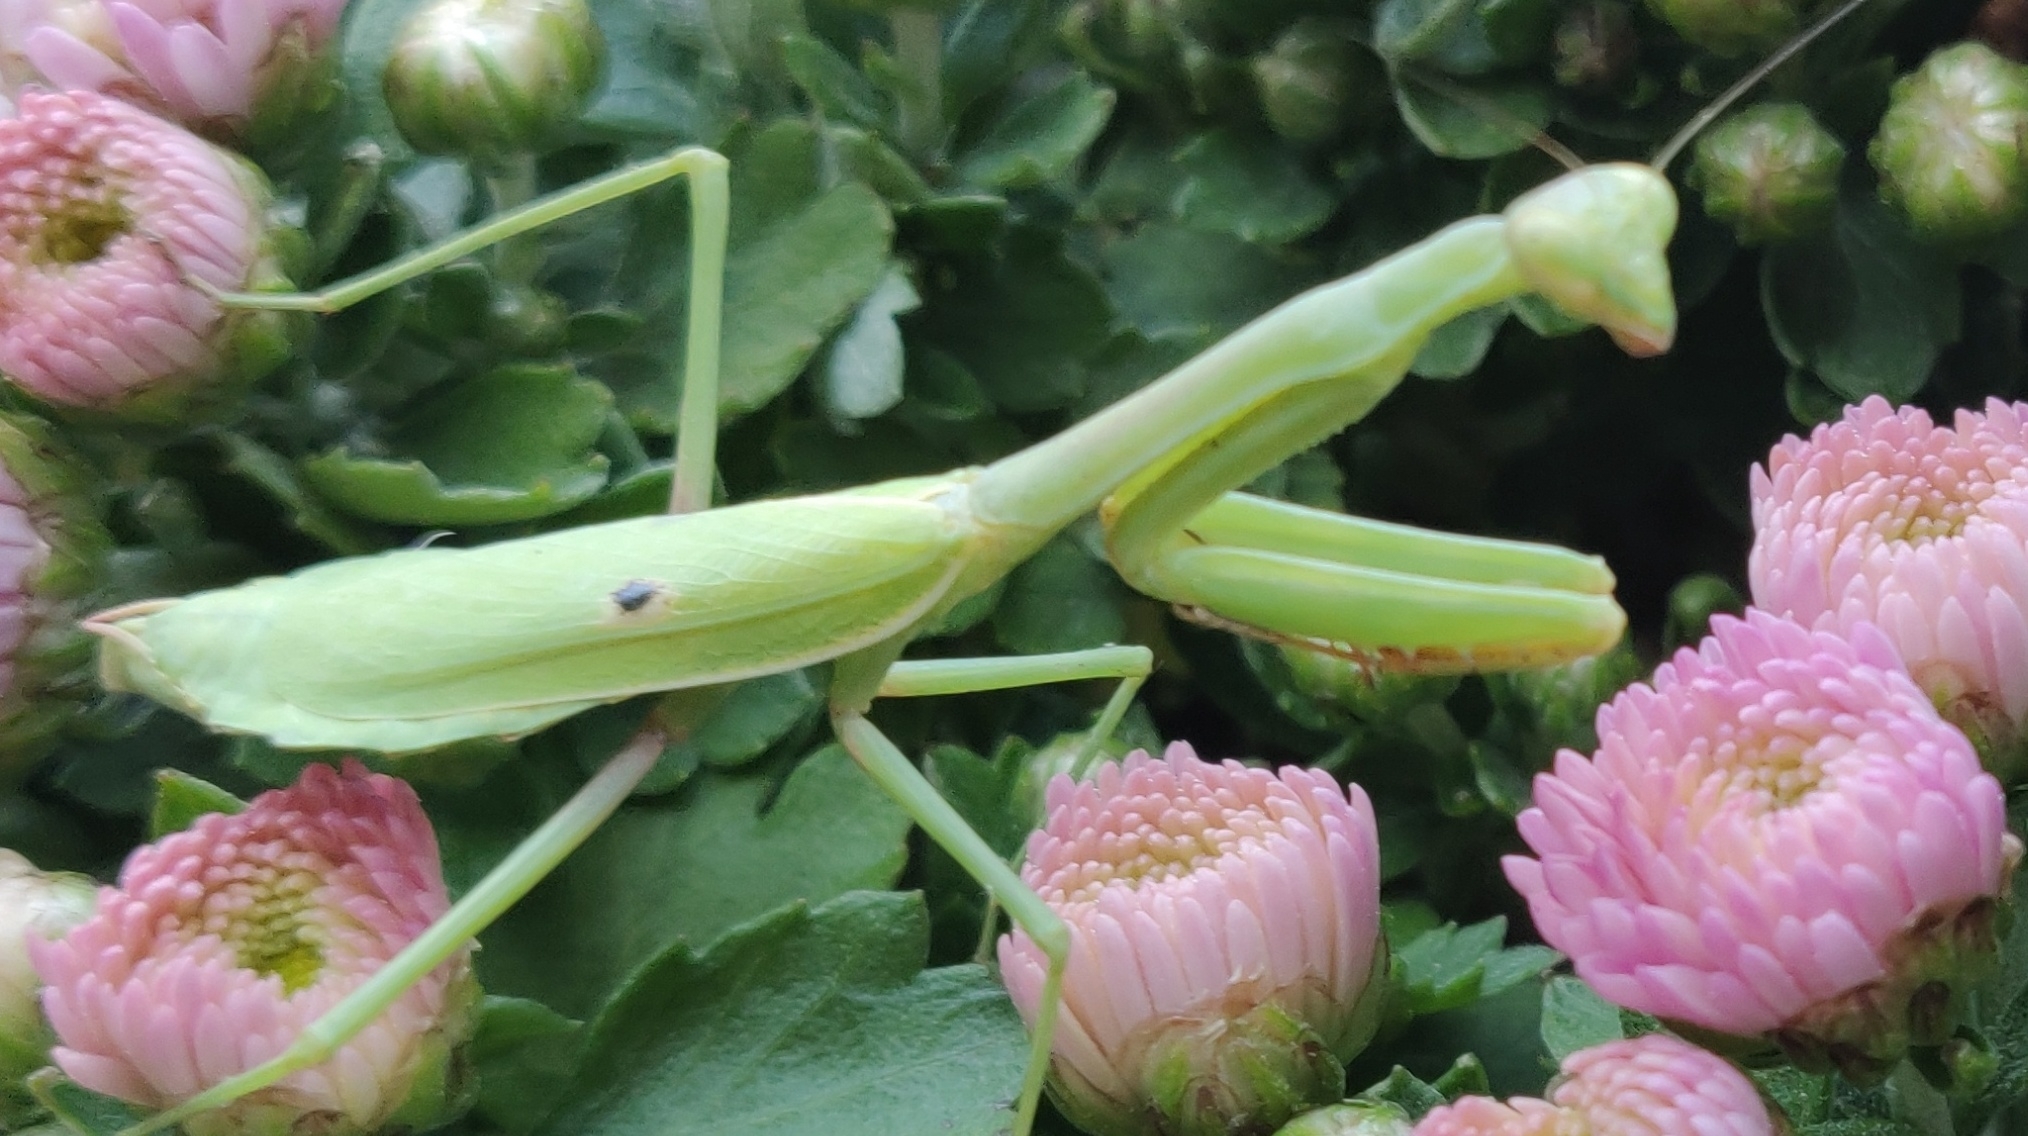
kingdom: Animalia
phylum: Arthropoda
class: Insecta
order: Mantodea
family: Mantidae
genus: Stagmomantis
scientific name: Stagmomantis carolina
